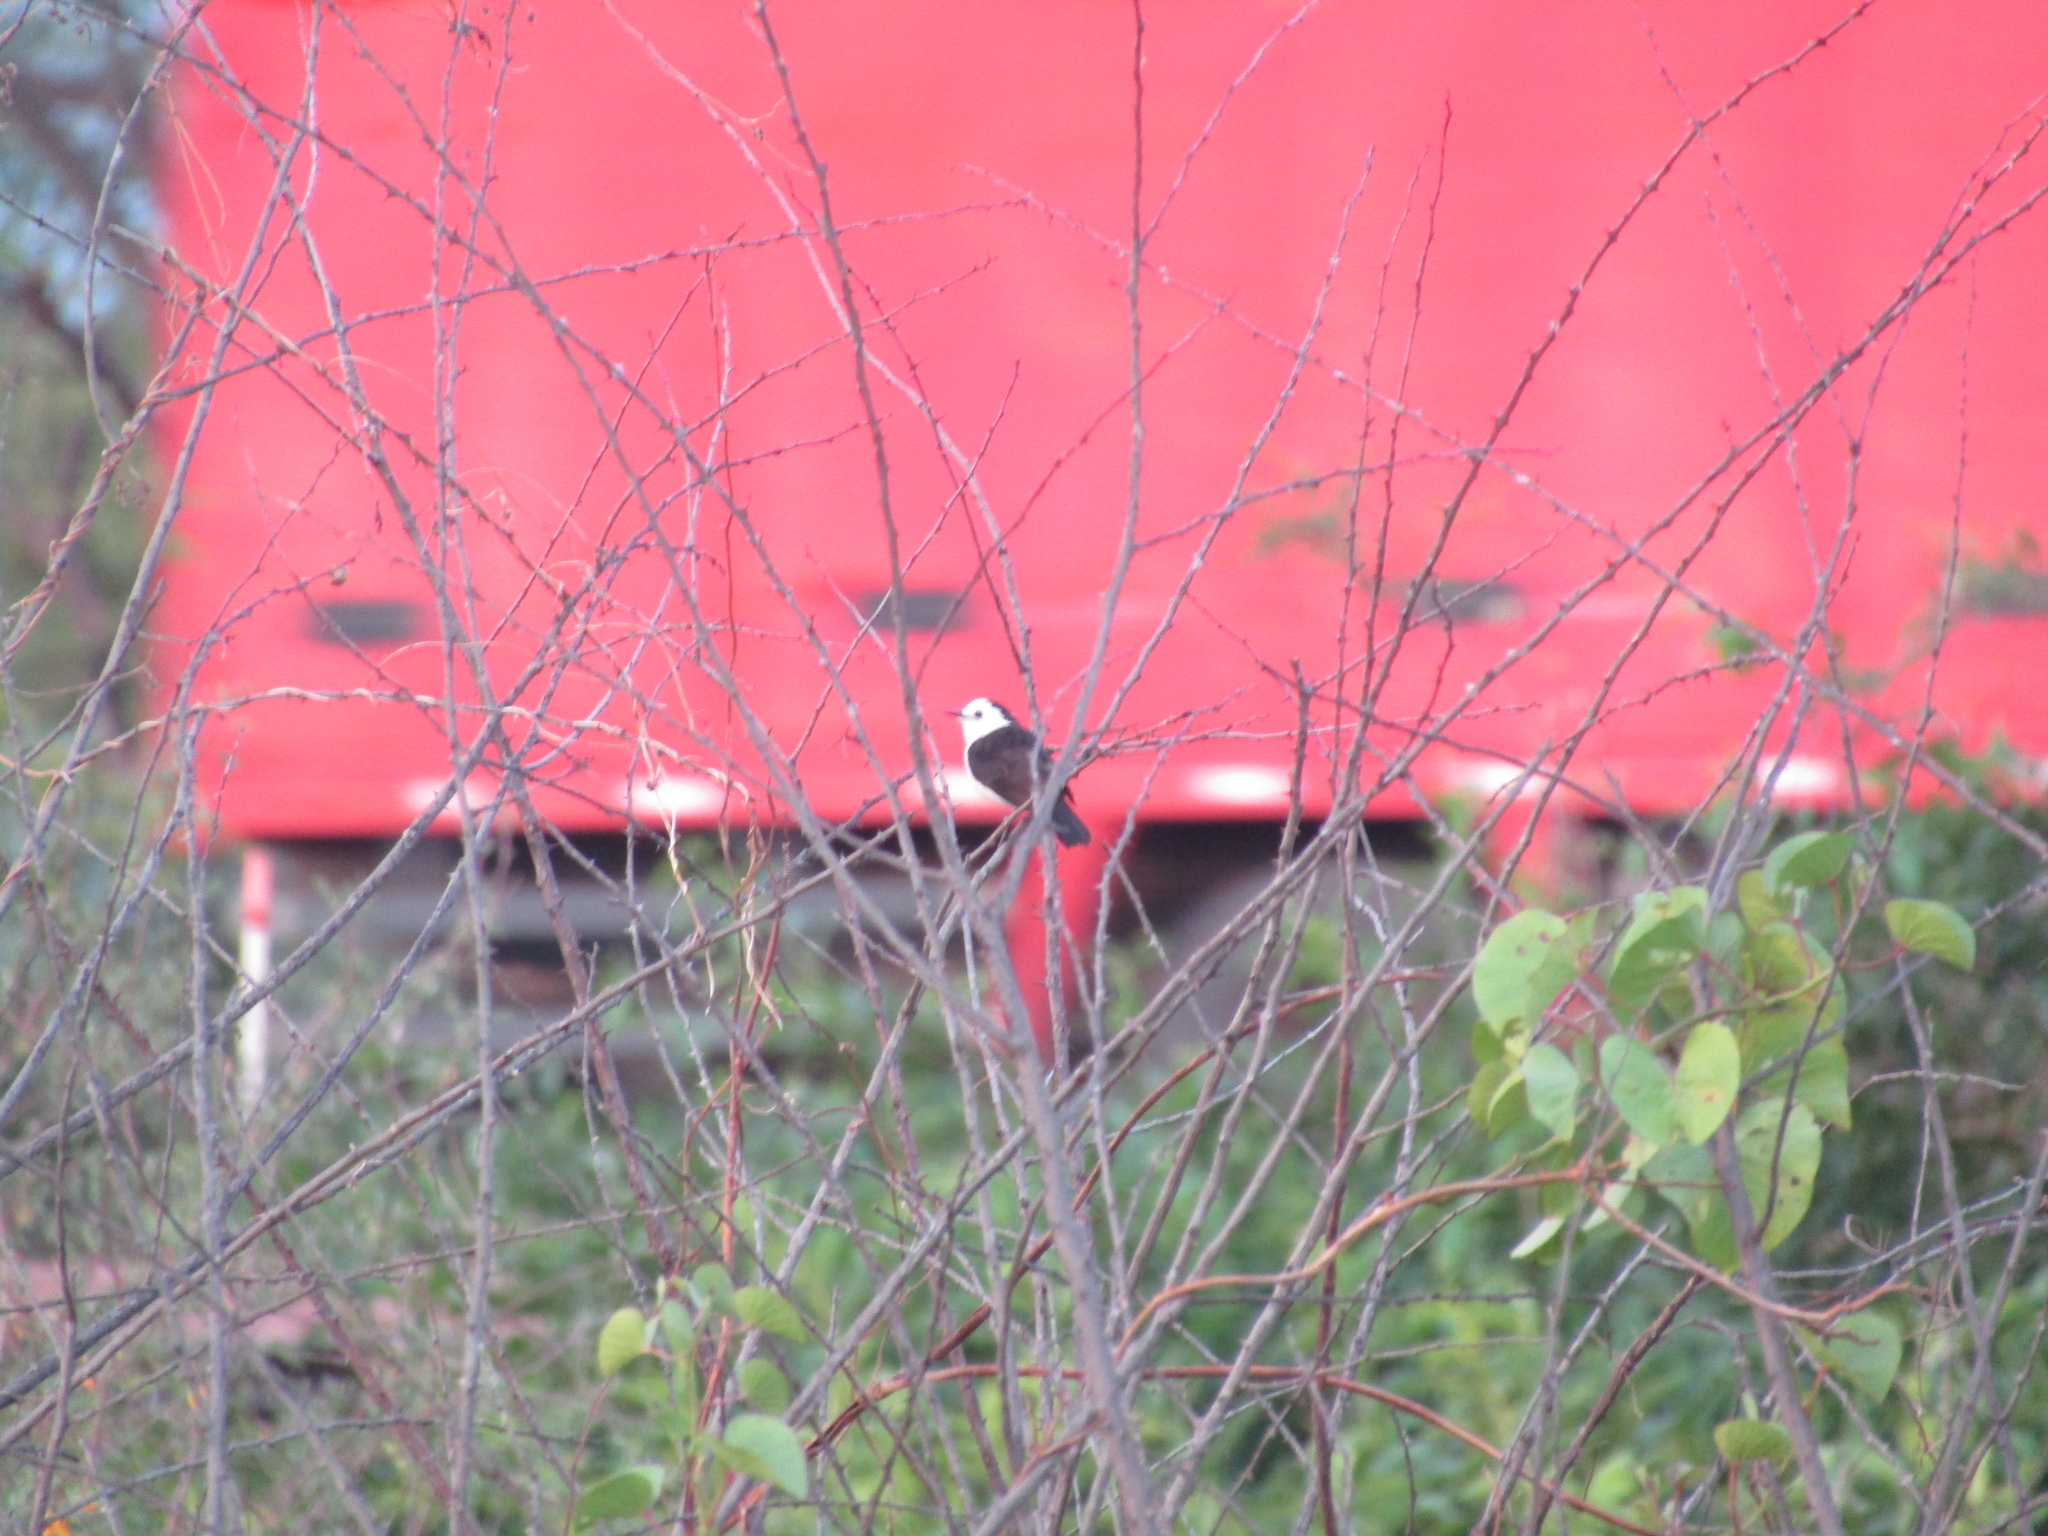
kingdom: Animalia
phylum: Chordata
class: Aves
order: Passeriformes
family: Tyrannidae
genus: Fluvicola
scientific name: Fluvicola pica
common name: Pied water-tyrant
